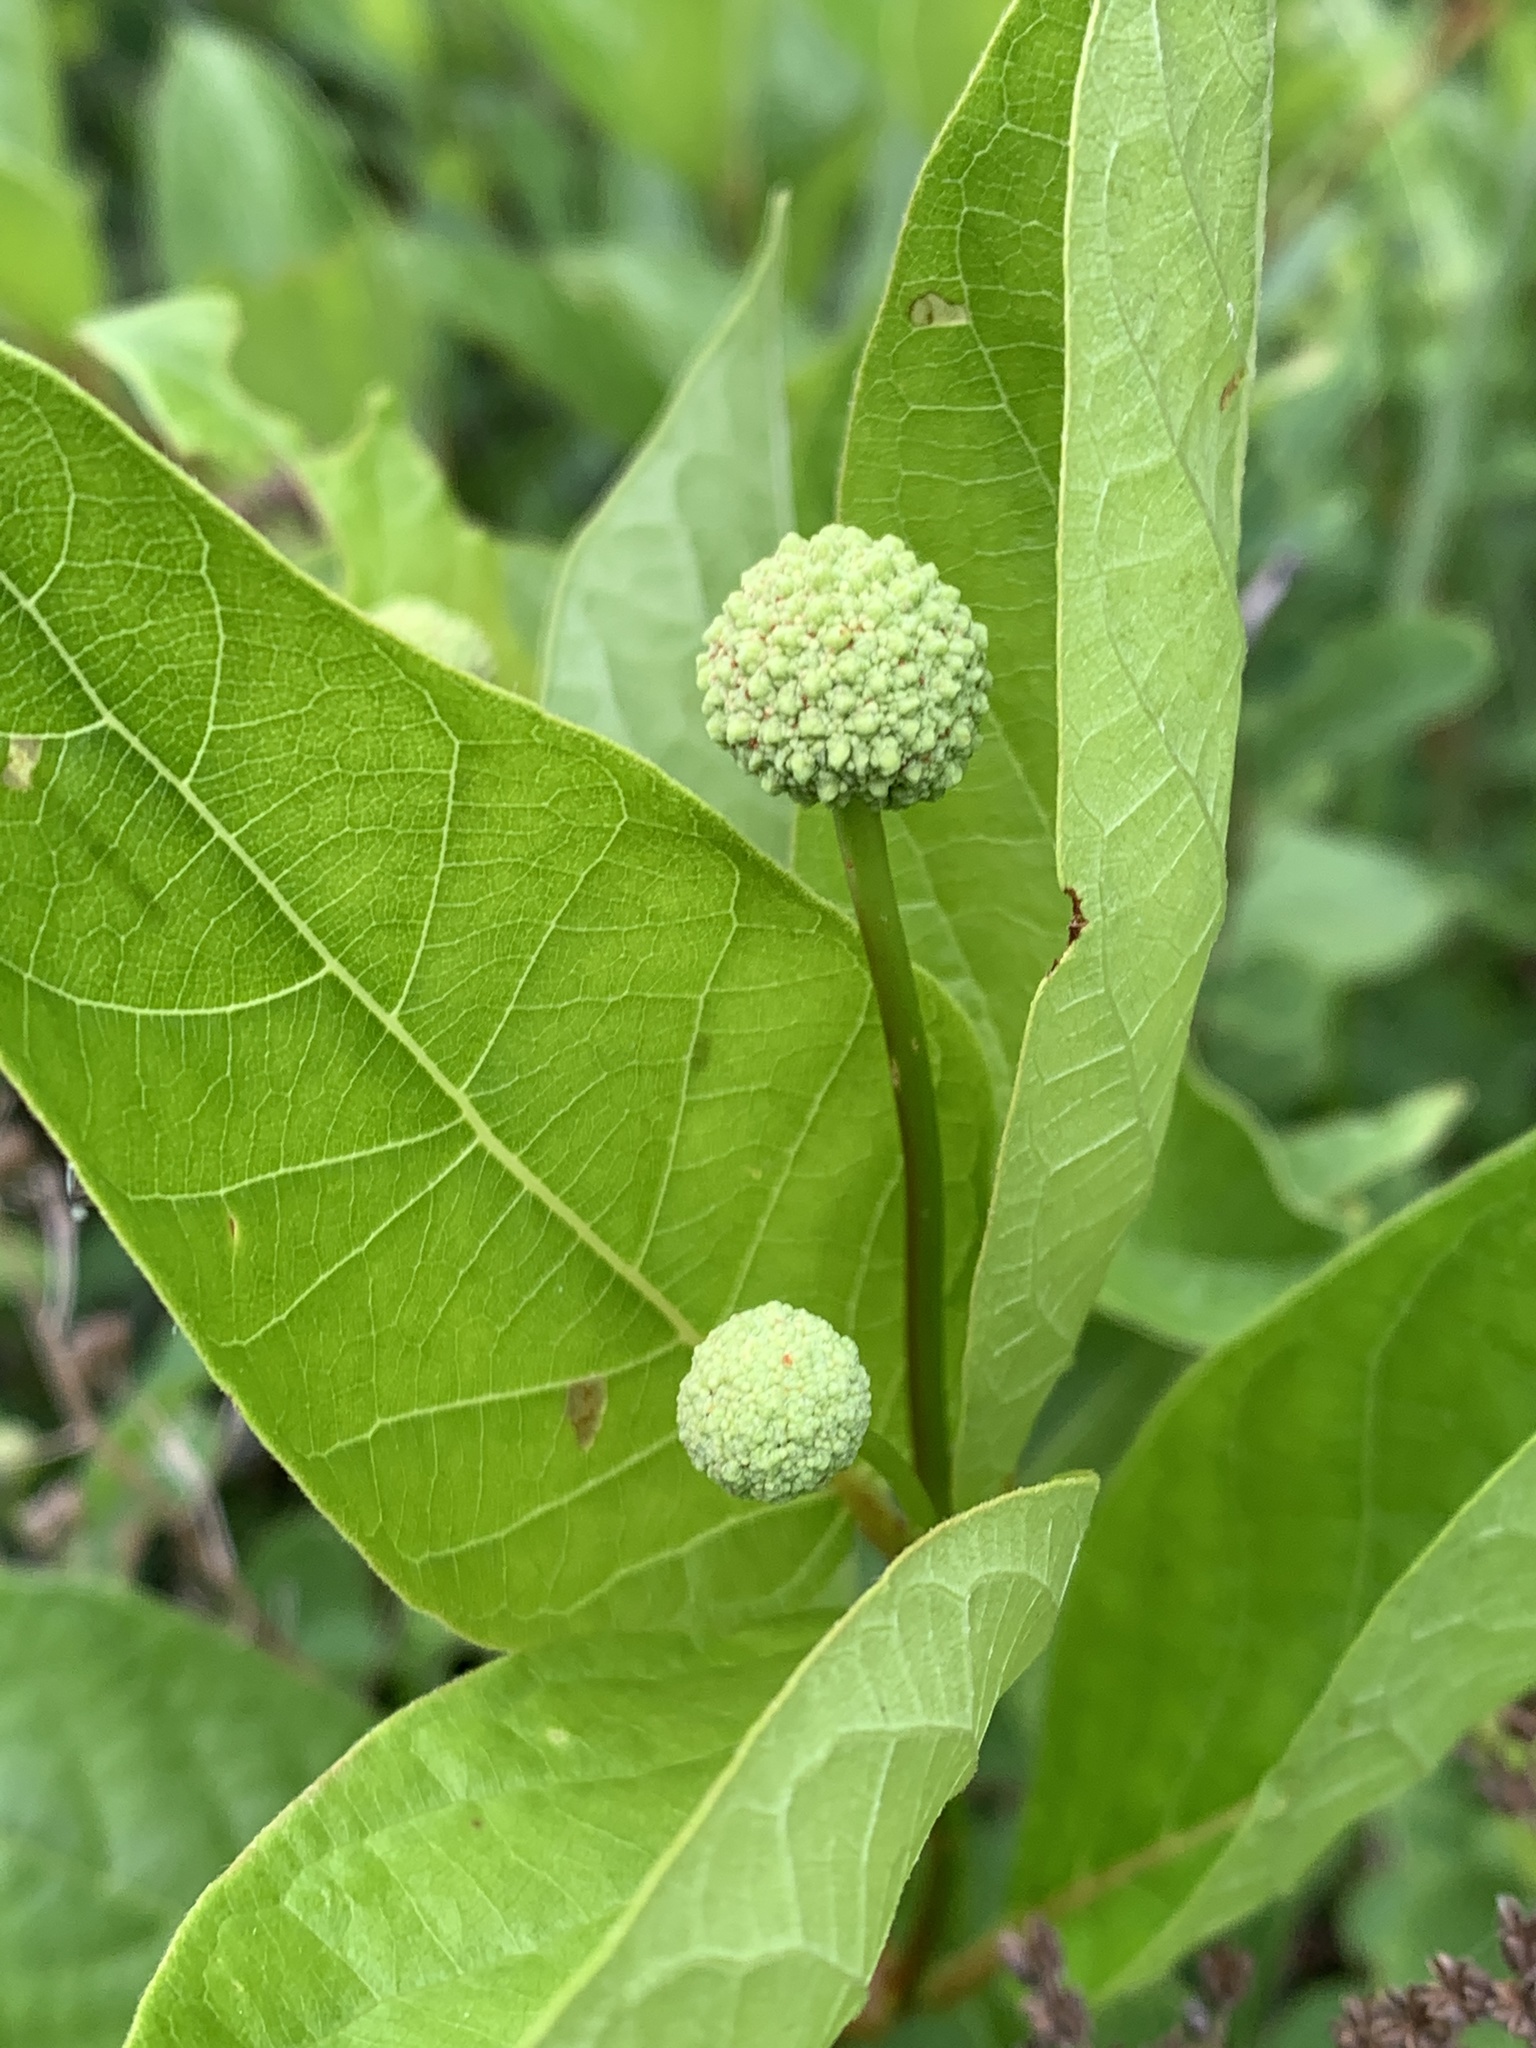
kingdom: Plantae
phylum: Tracheophyta
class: Magnoliopsida
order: Gentianales
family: Rubiaceae
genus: Cephalanthus
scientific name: Cephalanthus occidentalis
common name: Button-willow
